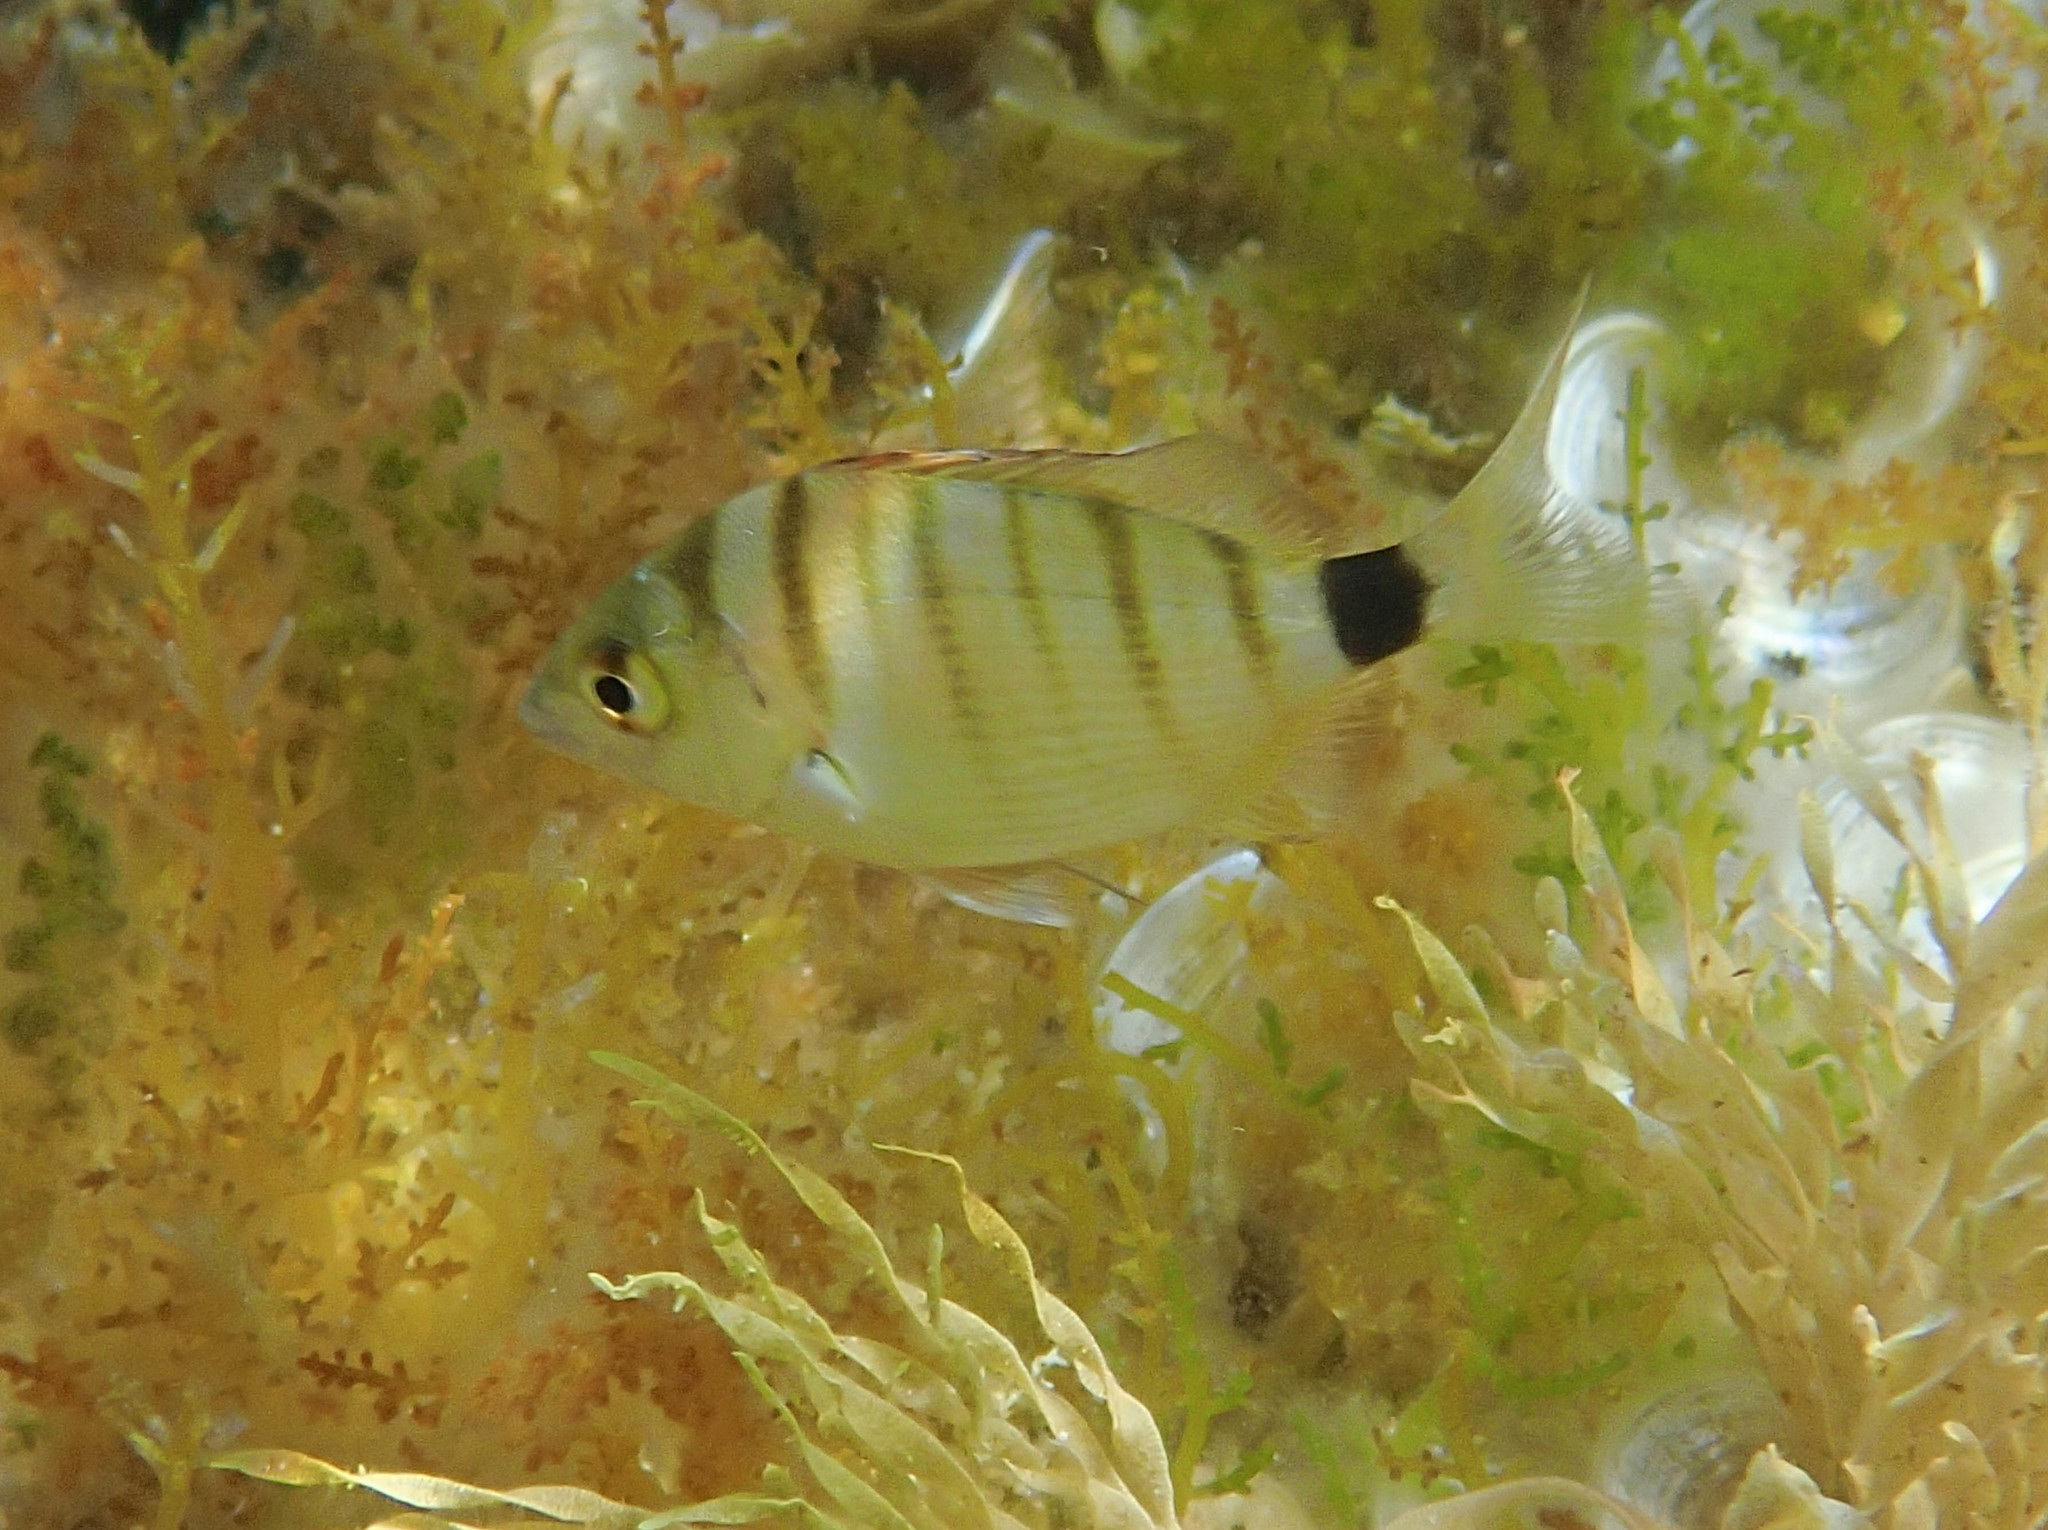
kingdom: Animalia
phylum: Chordata
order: Perciformes
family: Sparidae
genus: Diplodus
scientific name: Diplodus puntazzo
